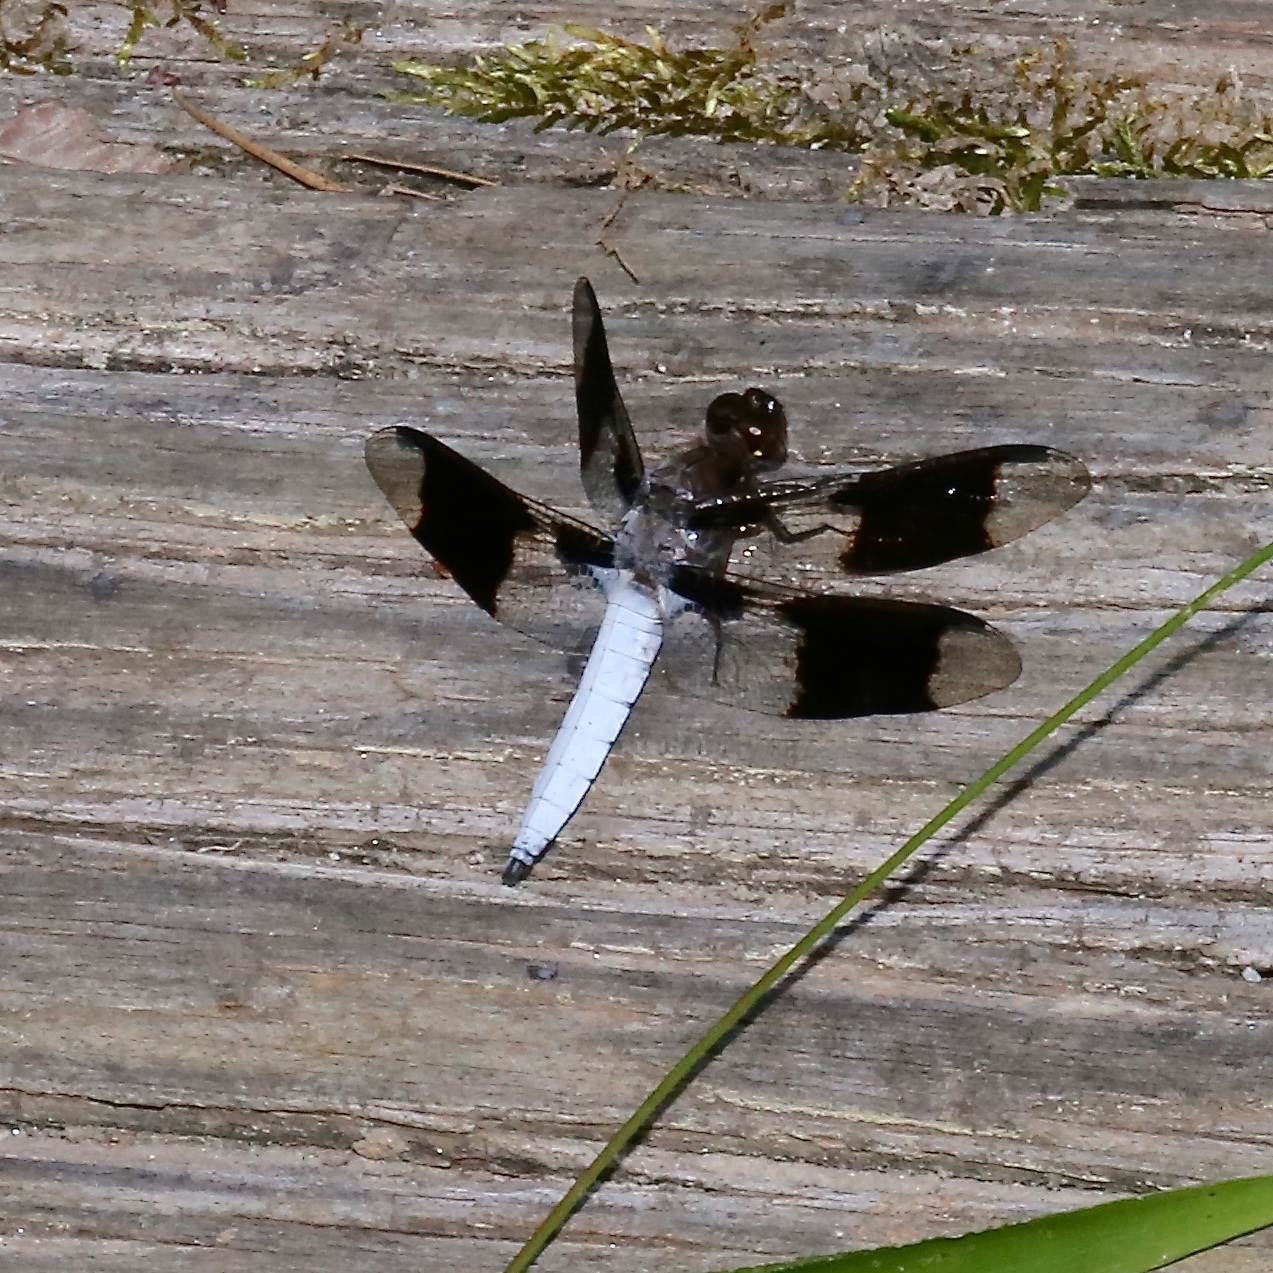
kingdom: Animalia
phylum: Arthropoda
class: Insecta
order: Odonata
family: Libellulidae
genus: Plathemis
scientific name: Plathemis lydia
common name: Common whitetail
